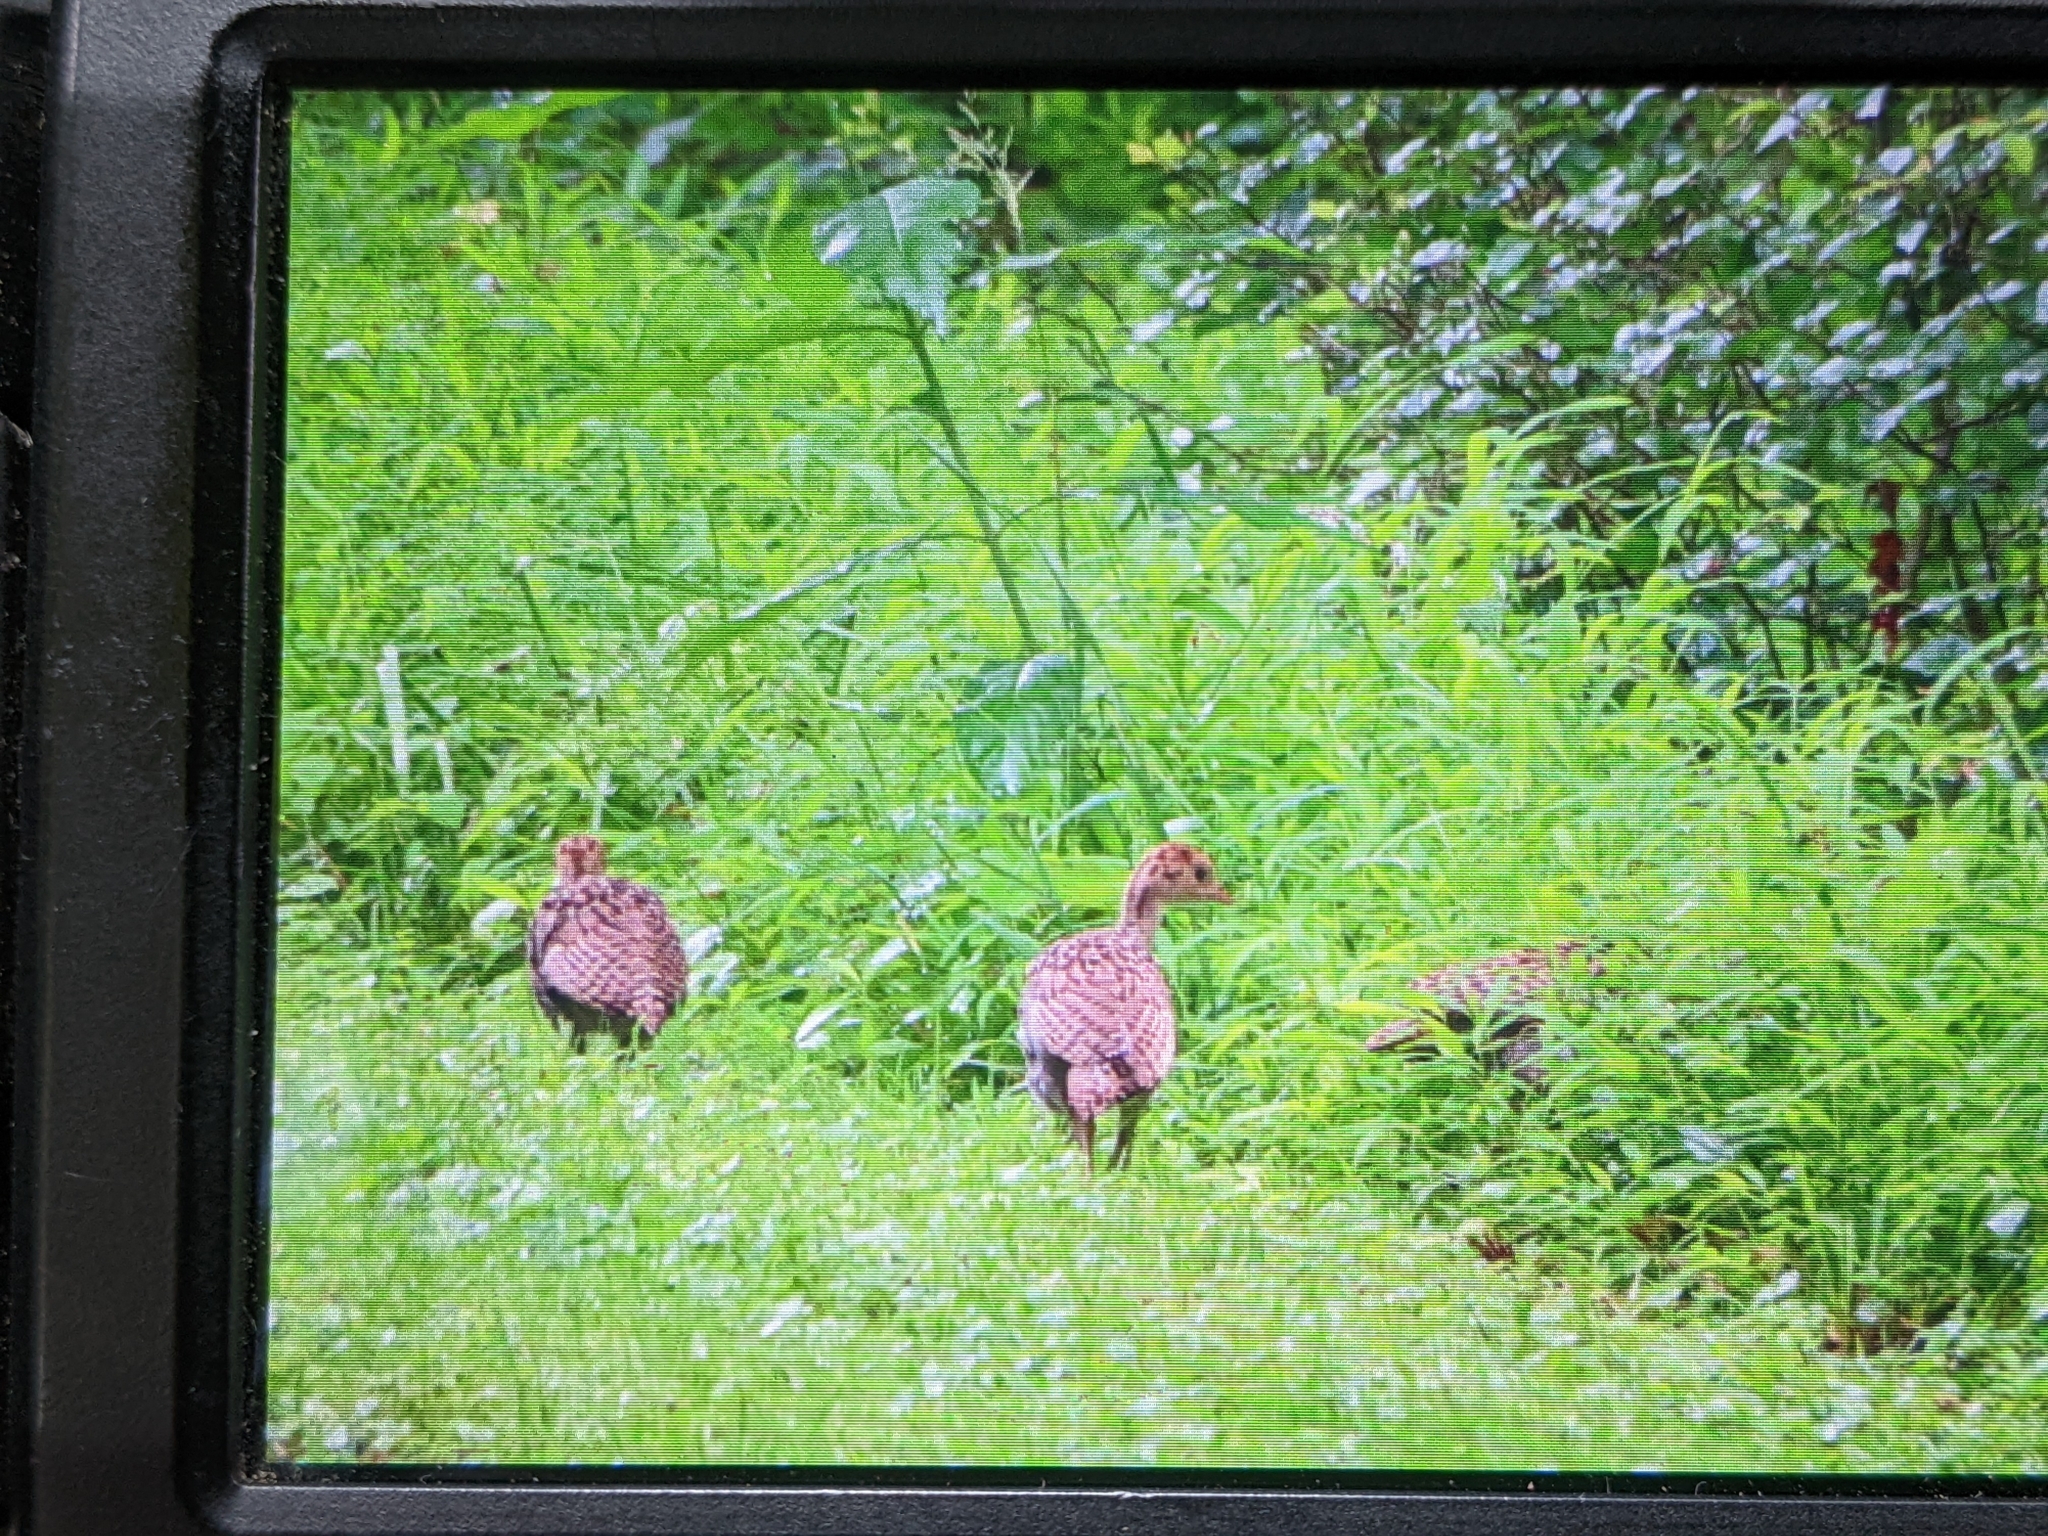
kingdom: Animalia
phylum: Chordata
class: Aves
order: Galliformes
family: Phasianidae
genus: Meleagris
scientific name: Meleagris gallopavo
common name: Wild turkey
